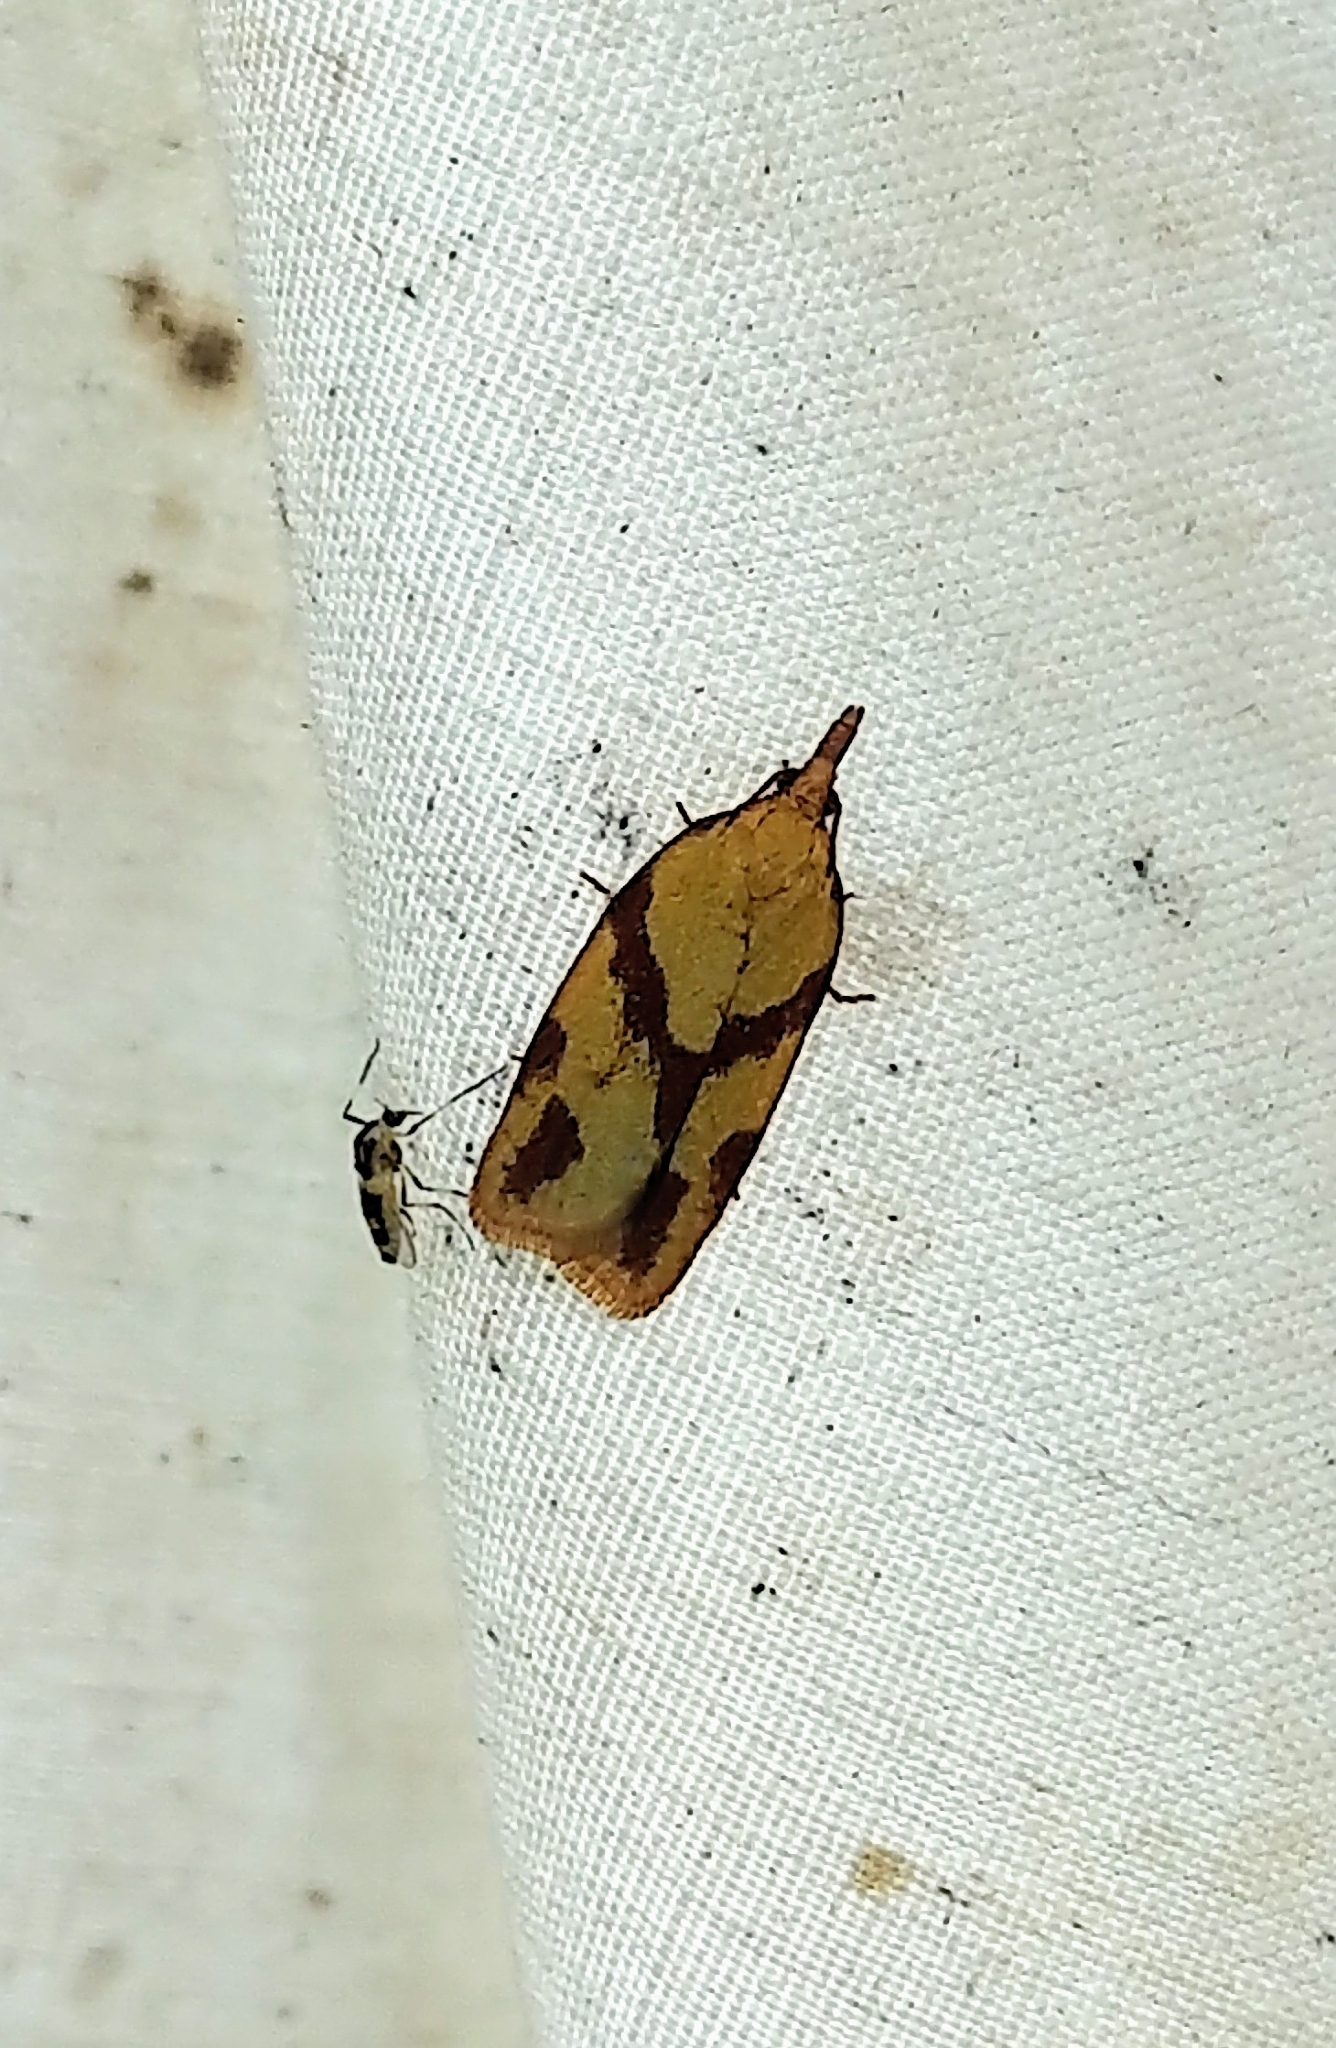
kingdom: Animalia
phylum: Arthropoda
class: Insecta
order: Lepidoptera
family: Tortricidae
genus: Sparganothis
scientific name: Sparganothis unifasciana
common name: One-lined sparganothis moth
